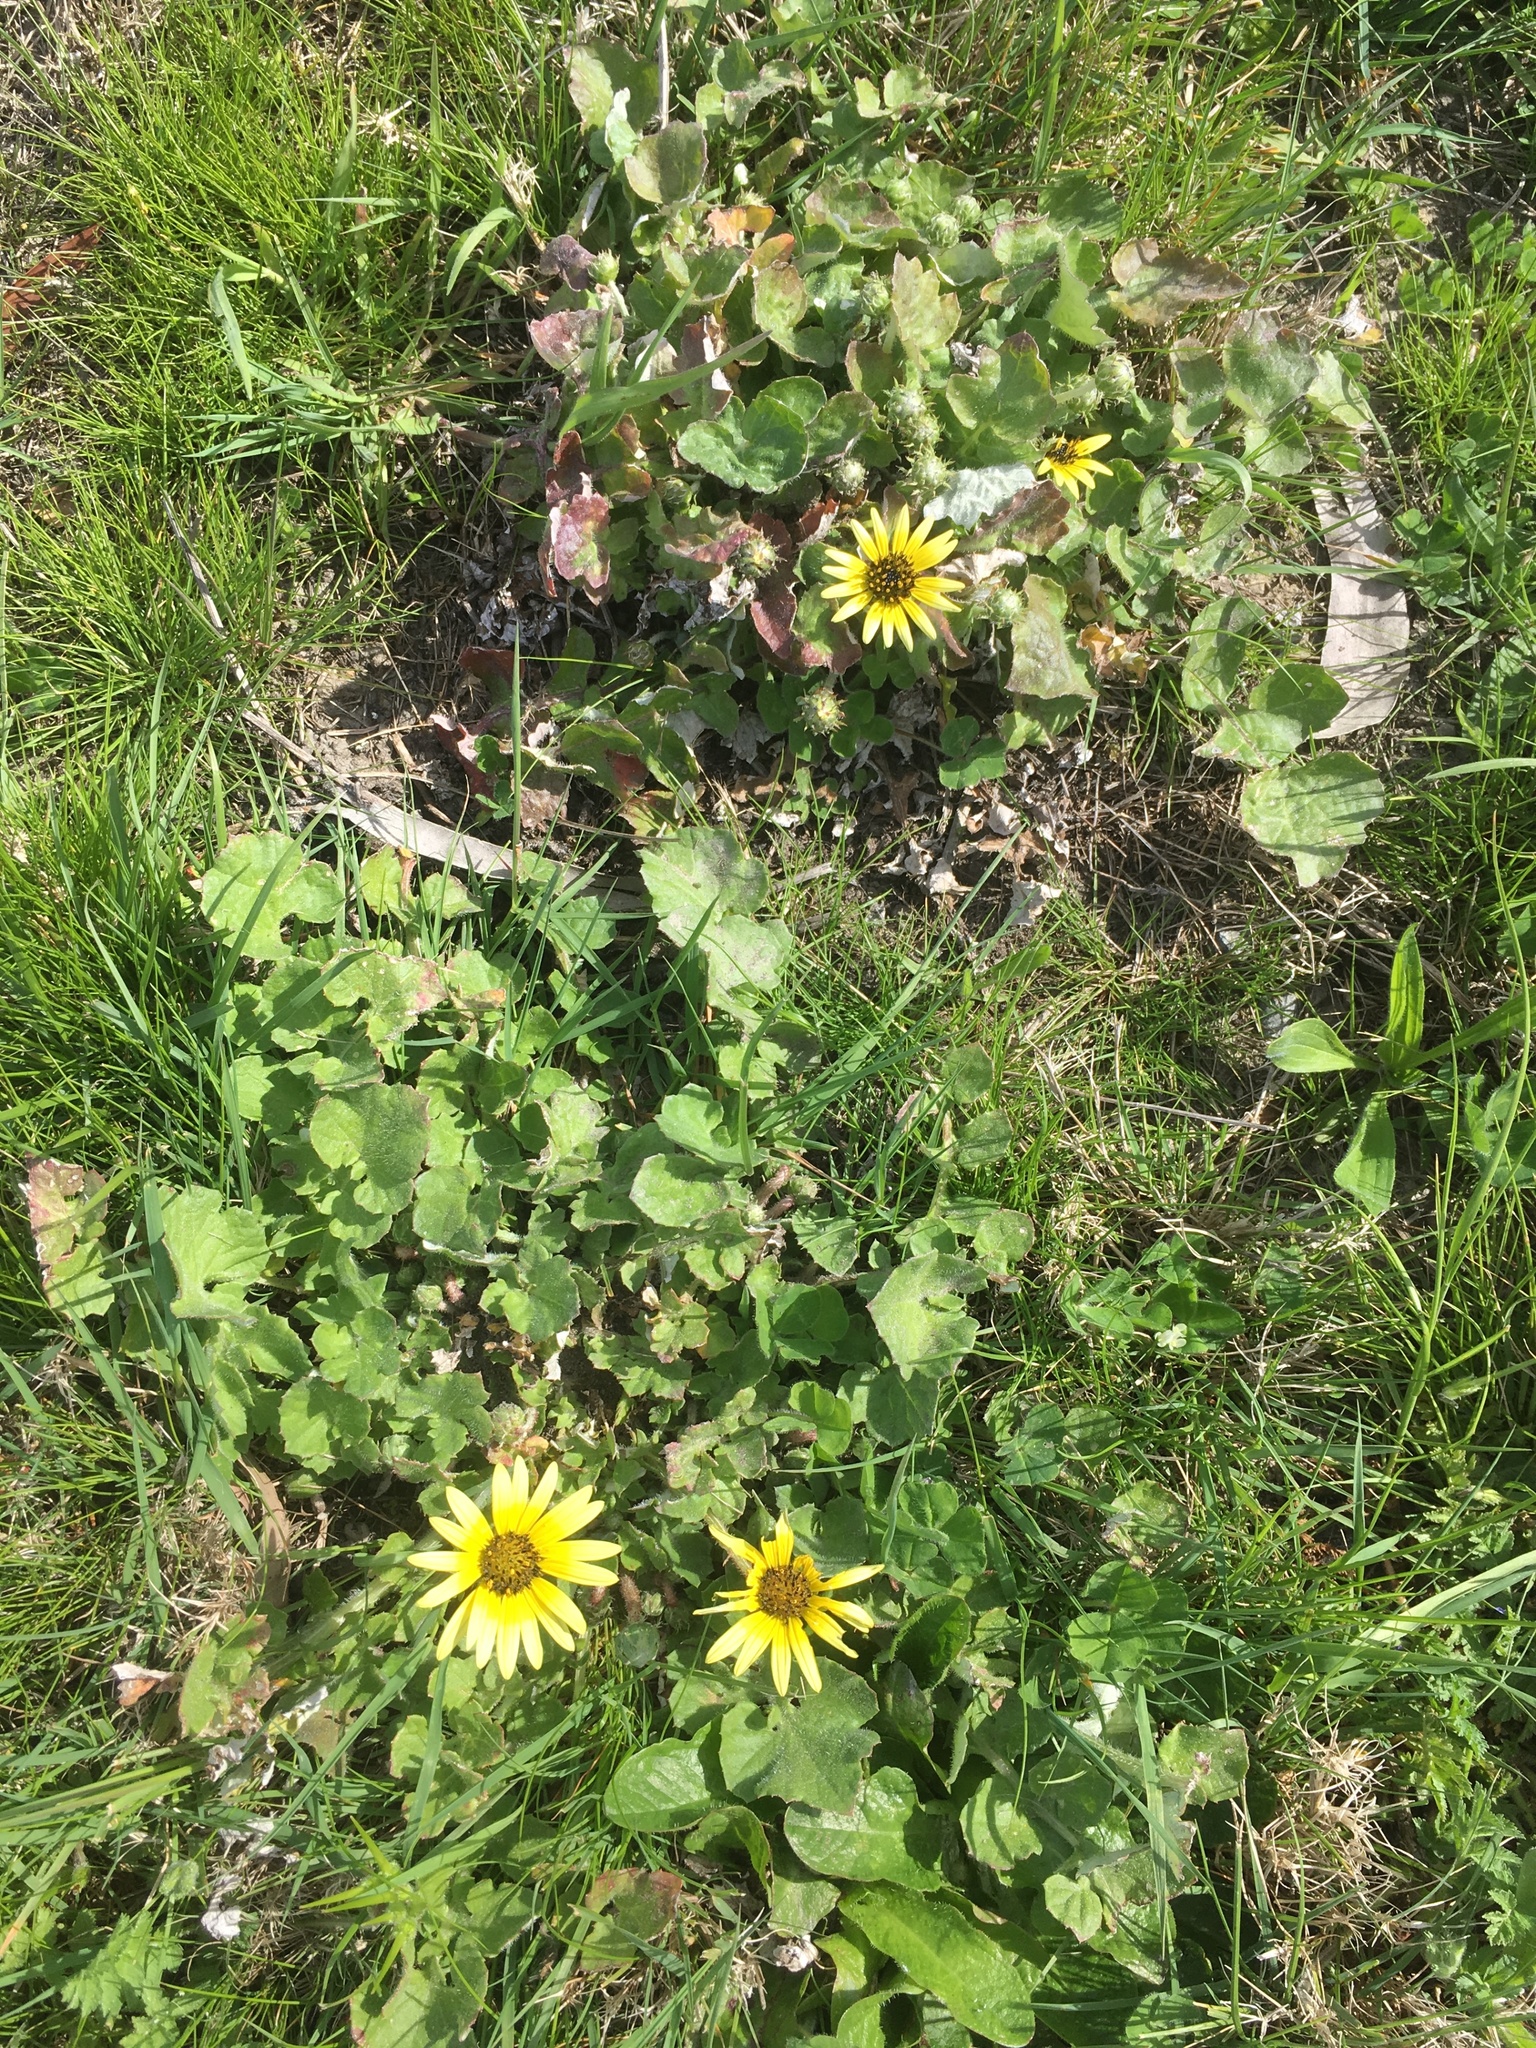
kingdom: Plantae
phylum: Tracheophyta
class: Magnoliopsida
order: Asterales
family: Asteraceae
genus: Arctotheca
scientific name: Arctotheca calendula
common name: Capeweed
